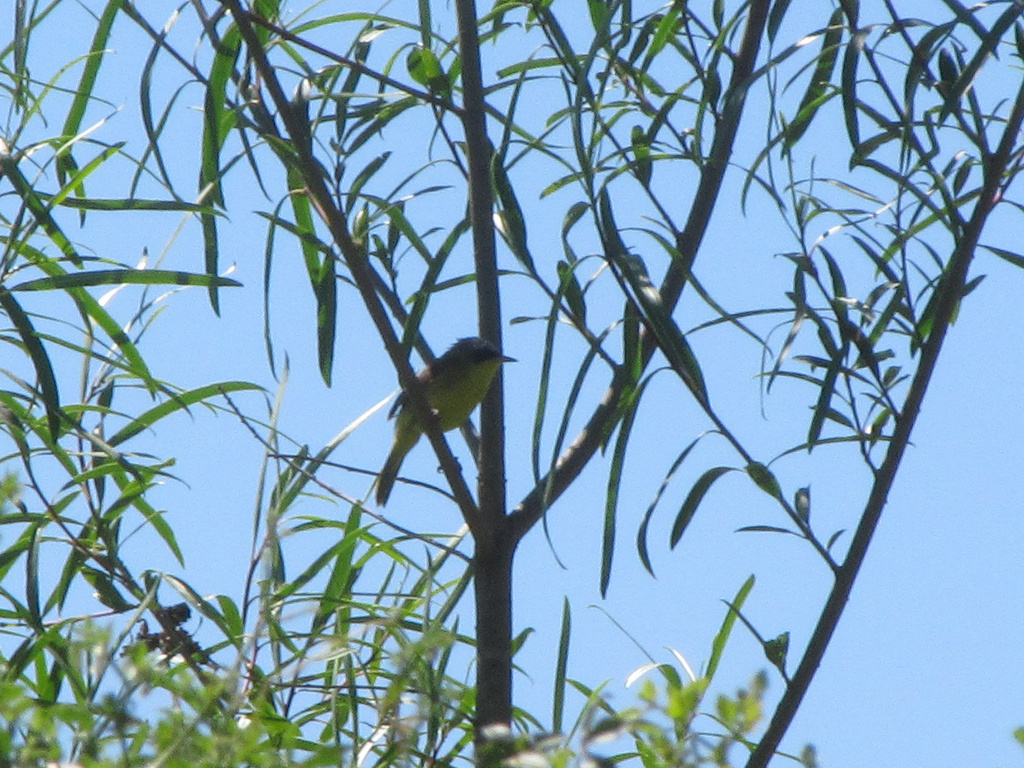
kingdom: Animalia
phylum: Chordata
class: Aves
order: Passeriformes
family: Parulidae
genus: Geothlypis
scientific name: Geothlypis velata
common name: Southern yellowthroat
